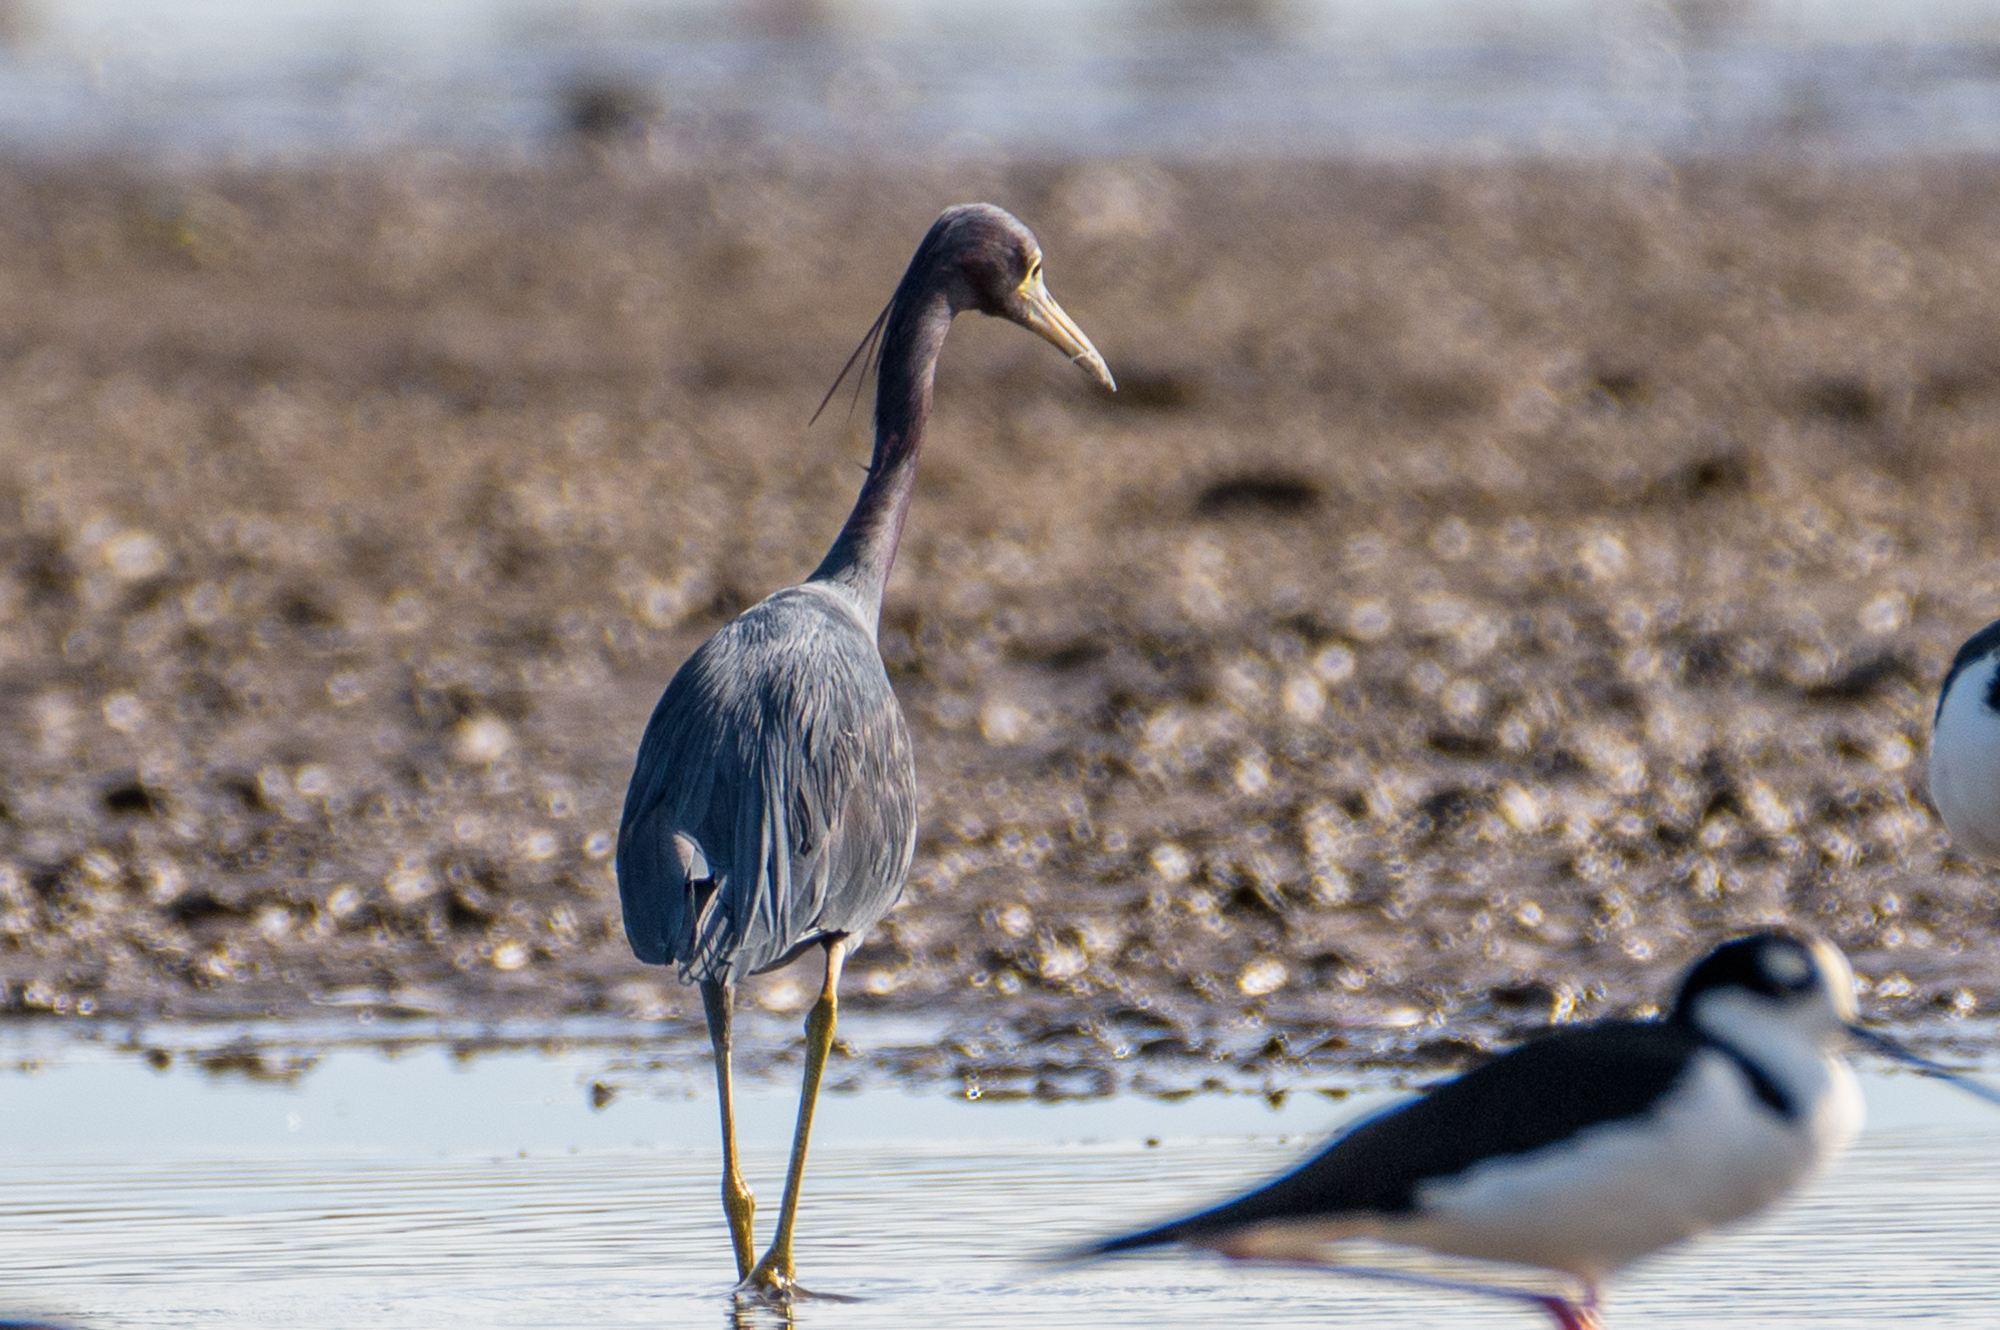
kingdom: Animalia
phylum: Chordata
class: Aves
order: Pelecaniformes
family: Ardeidae
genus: Egretta
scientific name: Egretta caerulea
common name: Little blue heron
